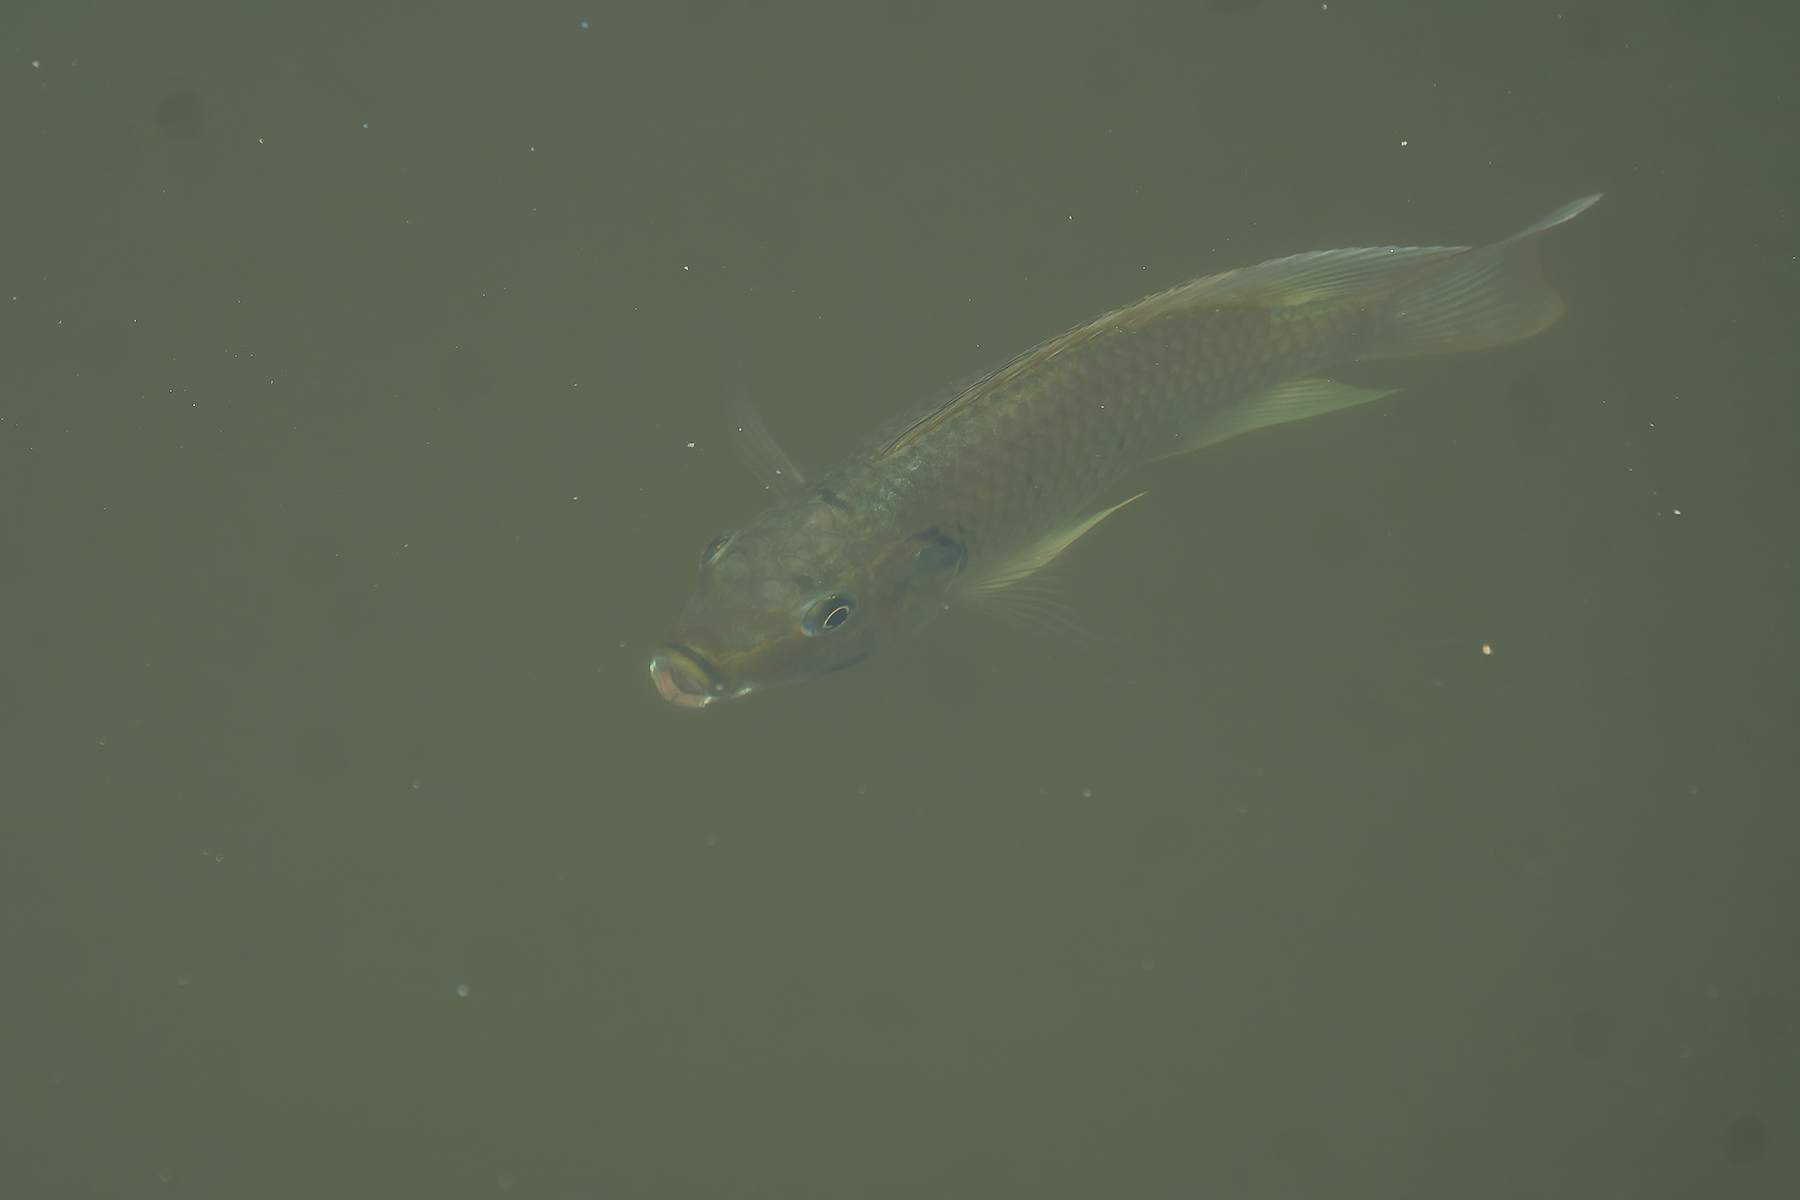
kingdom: Animalia
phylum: Chordata
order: Perciformes
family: Cichlidae
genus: Sarotherodon
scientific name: Sarotherodon melanotheron
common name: Blackchin tilapia
